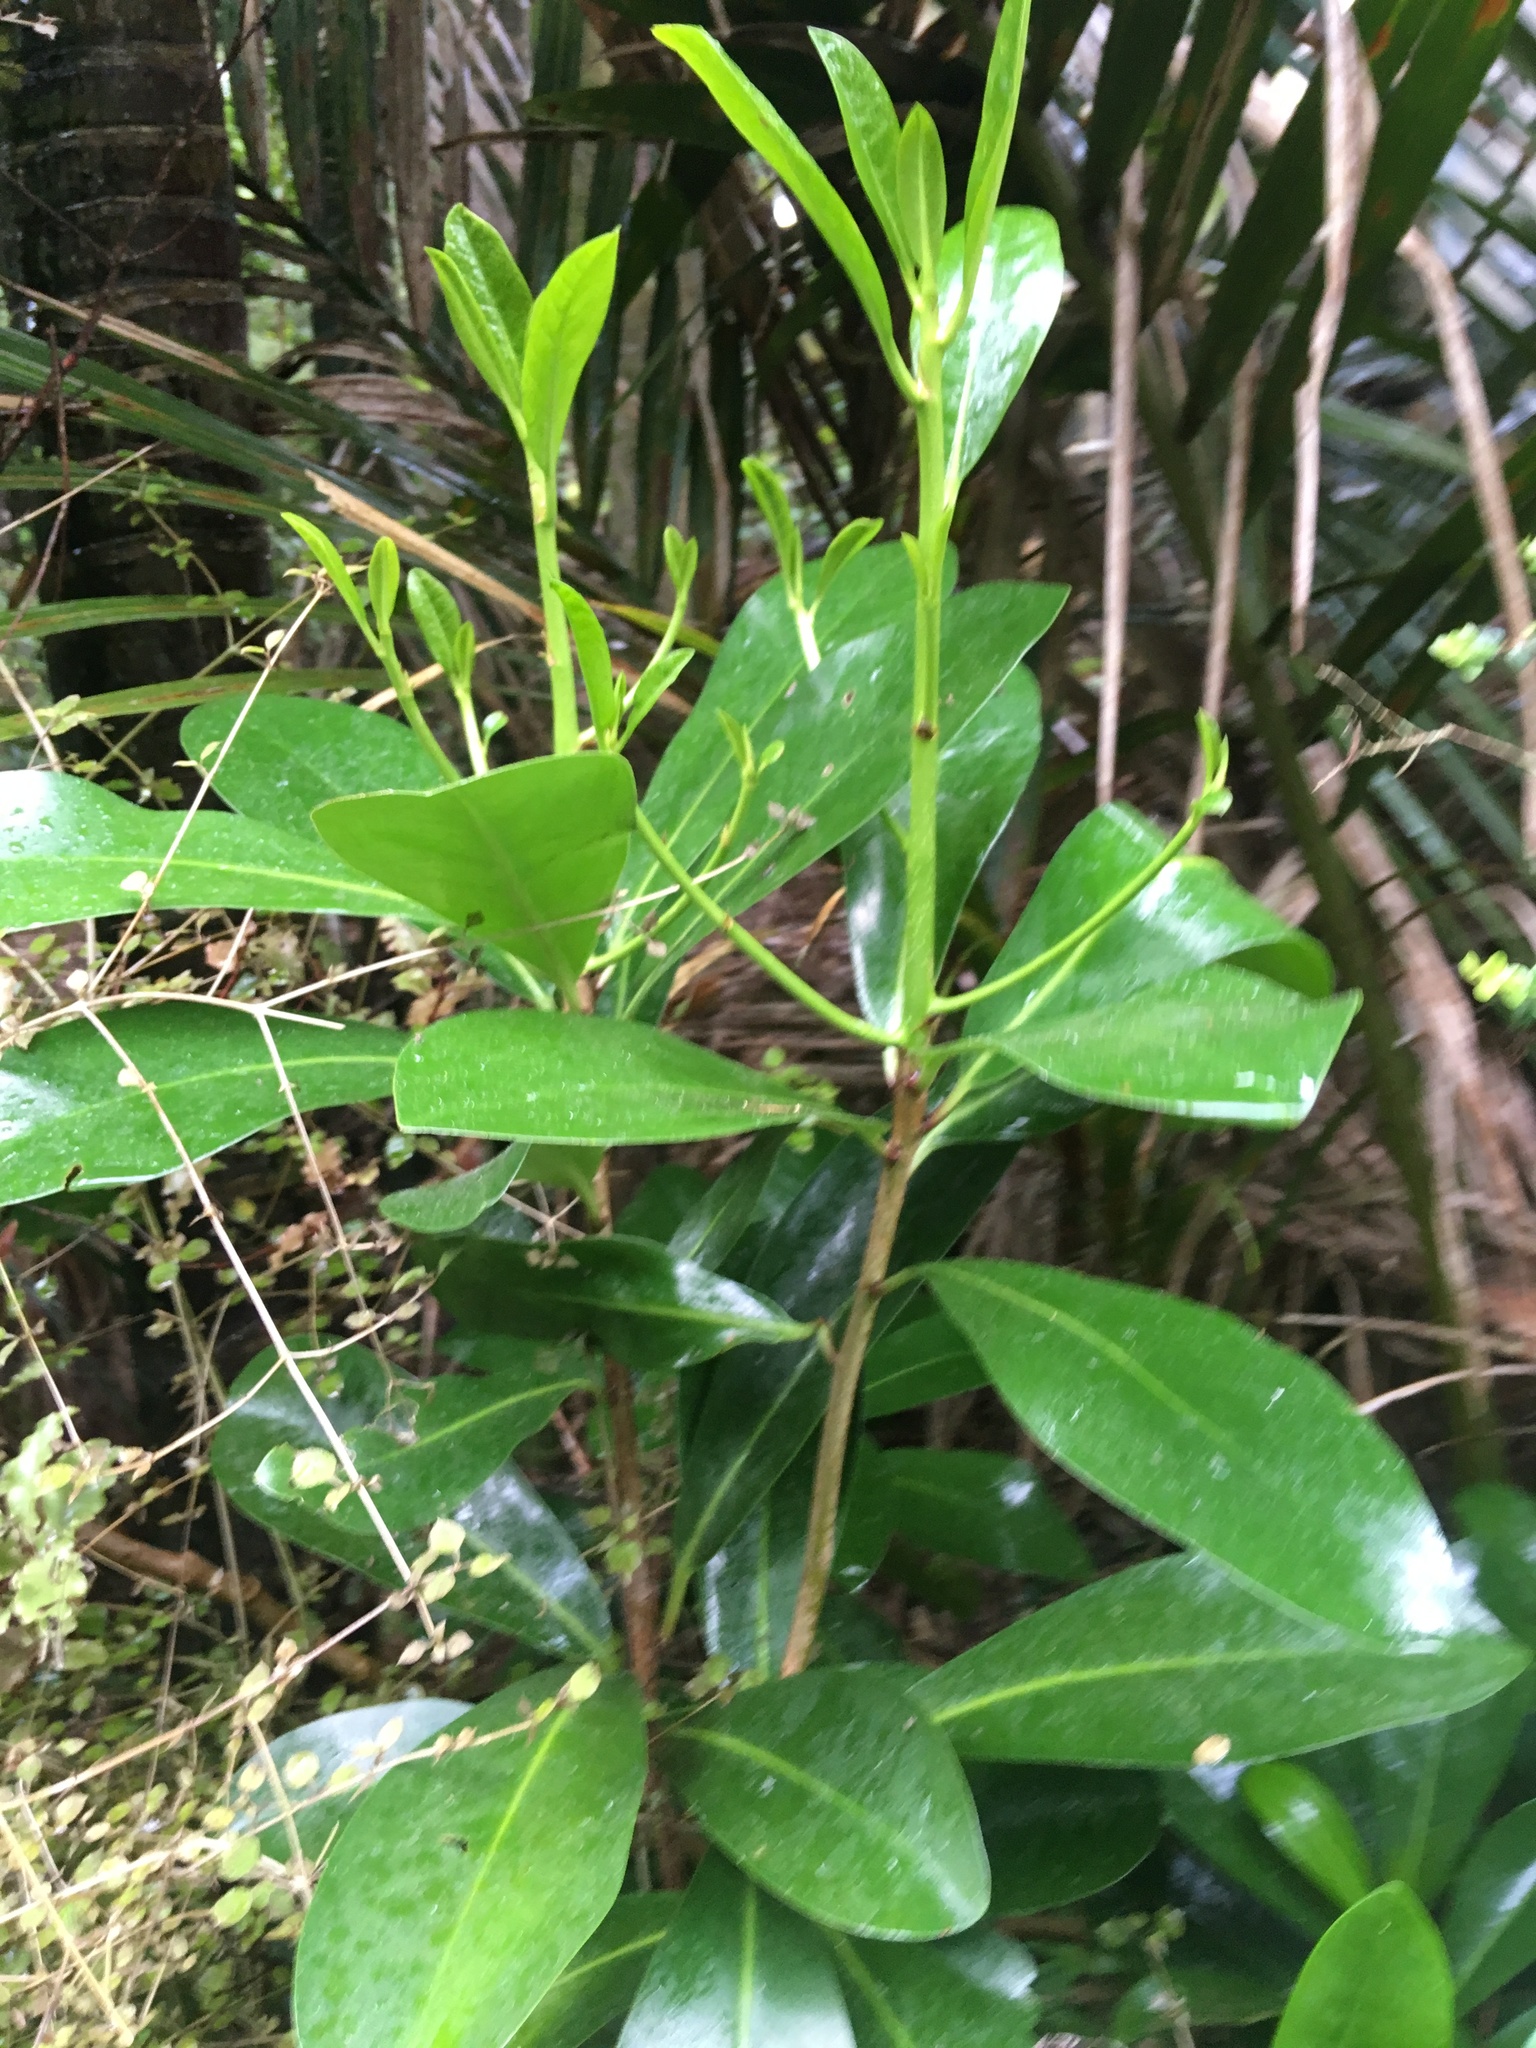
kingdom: Plantae
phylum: Tracheophyta
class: Magnoliopsida
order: Cucurbitales
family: Corynocarpaceae
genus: Corynocarpus
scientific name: Corynocarpus laevigatus
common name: New zealand laurel
